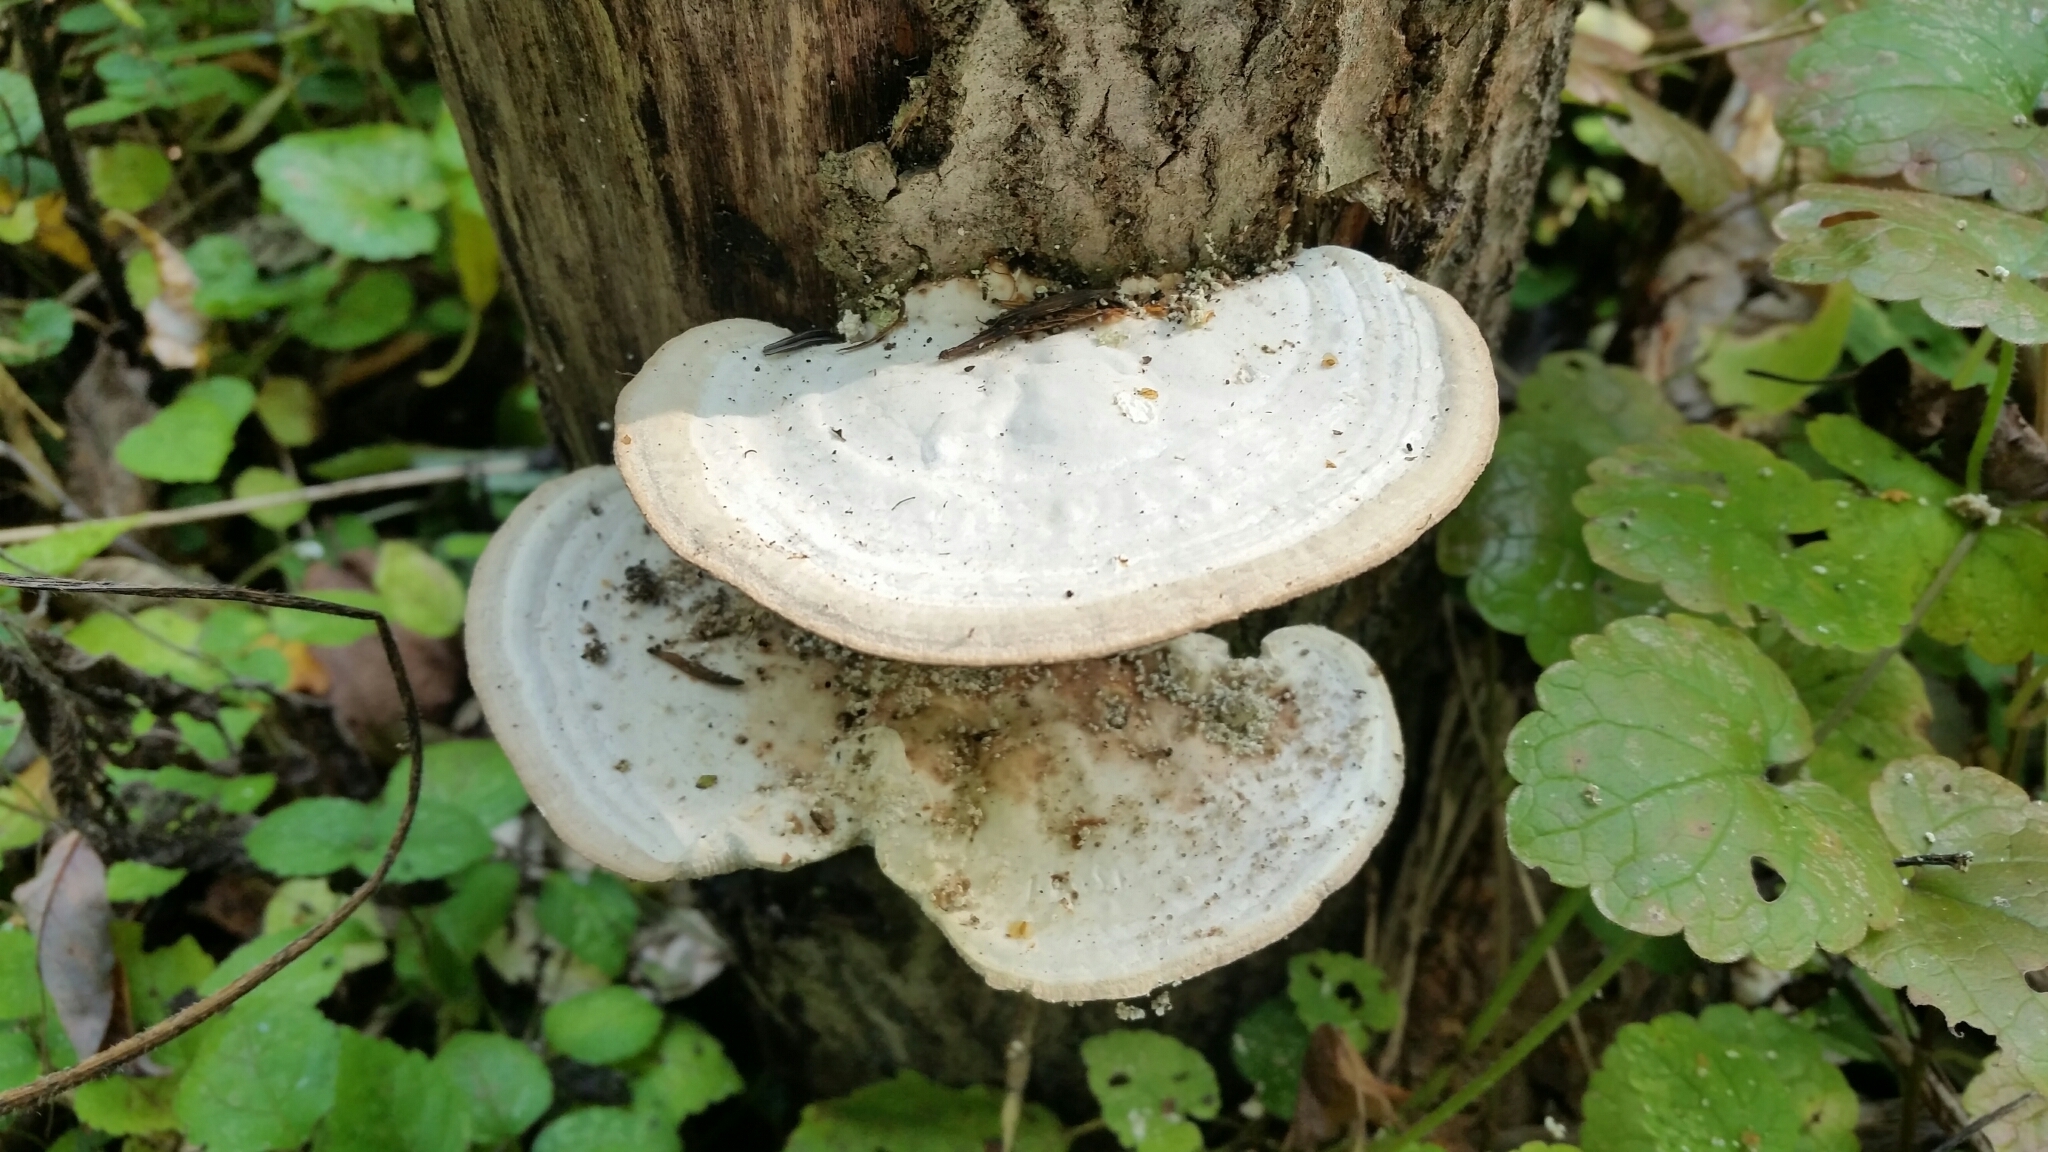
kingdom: Fungi
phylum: Basidiomycota
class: Agaricomycetes
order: Polyporales
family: Polyporaceae
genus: Trametes
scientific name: Trametes gibbosa
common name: Lumpy bracket
